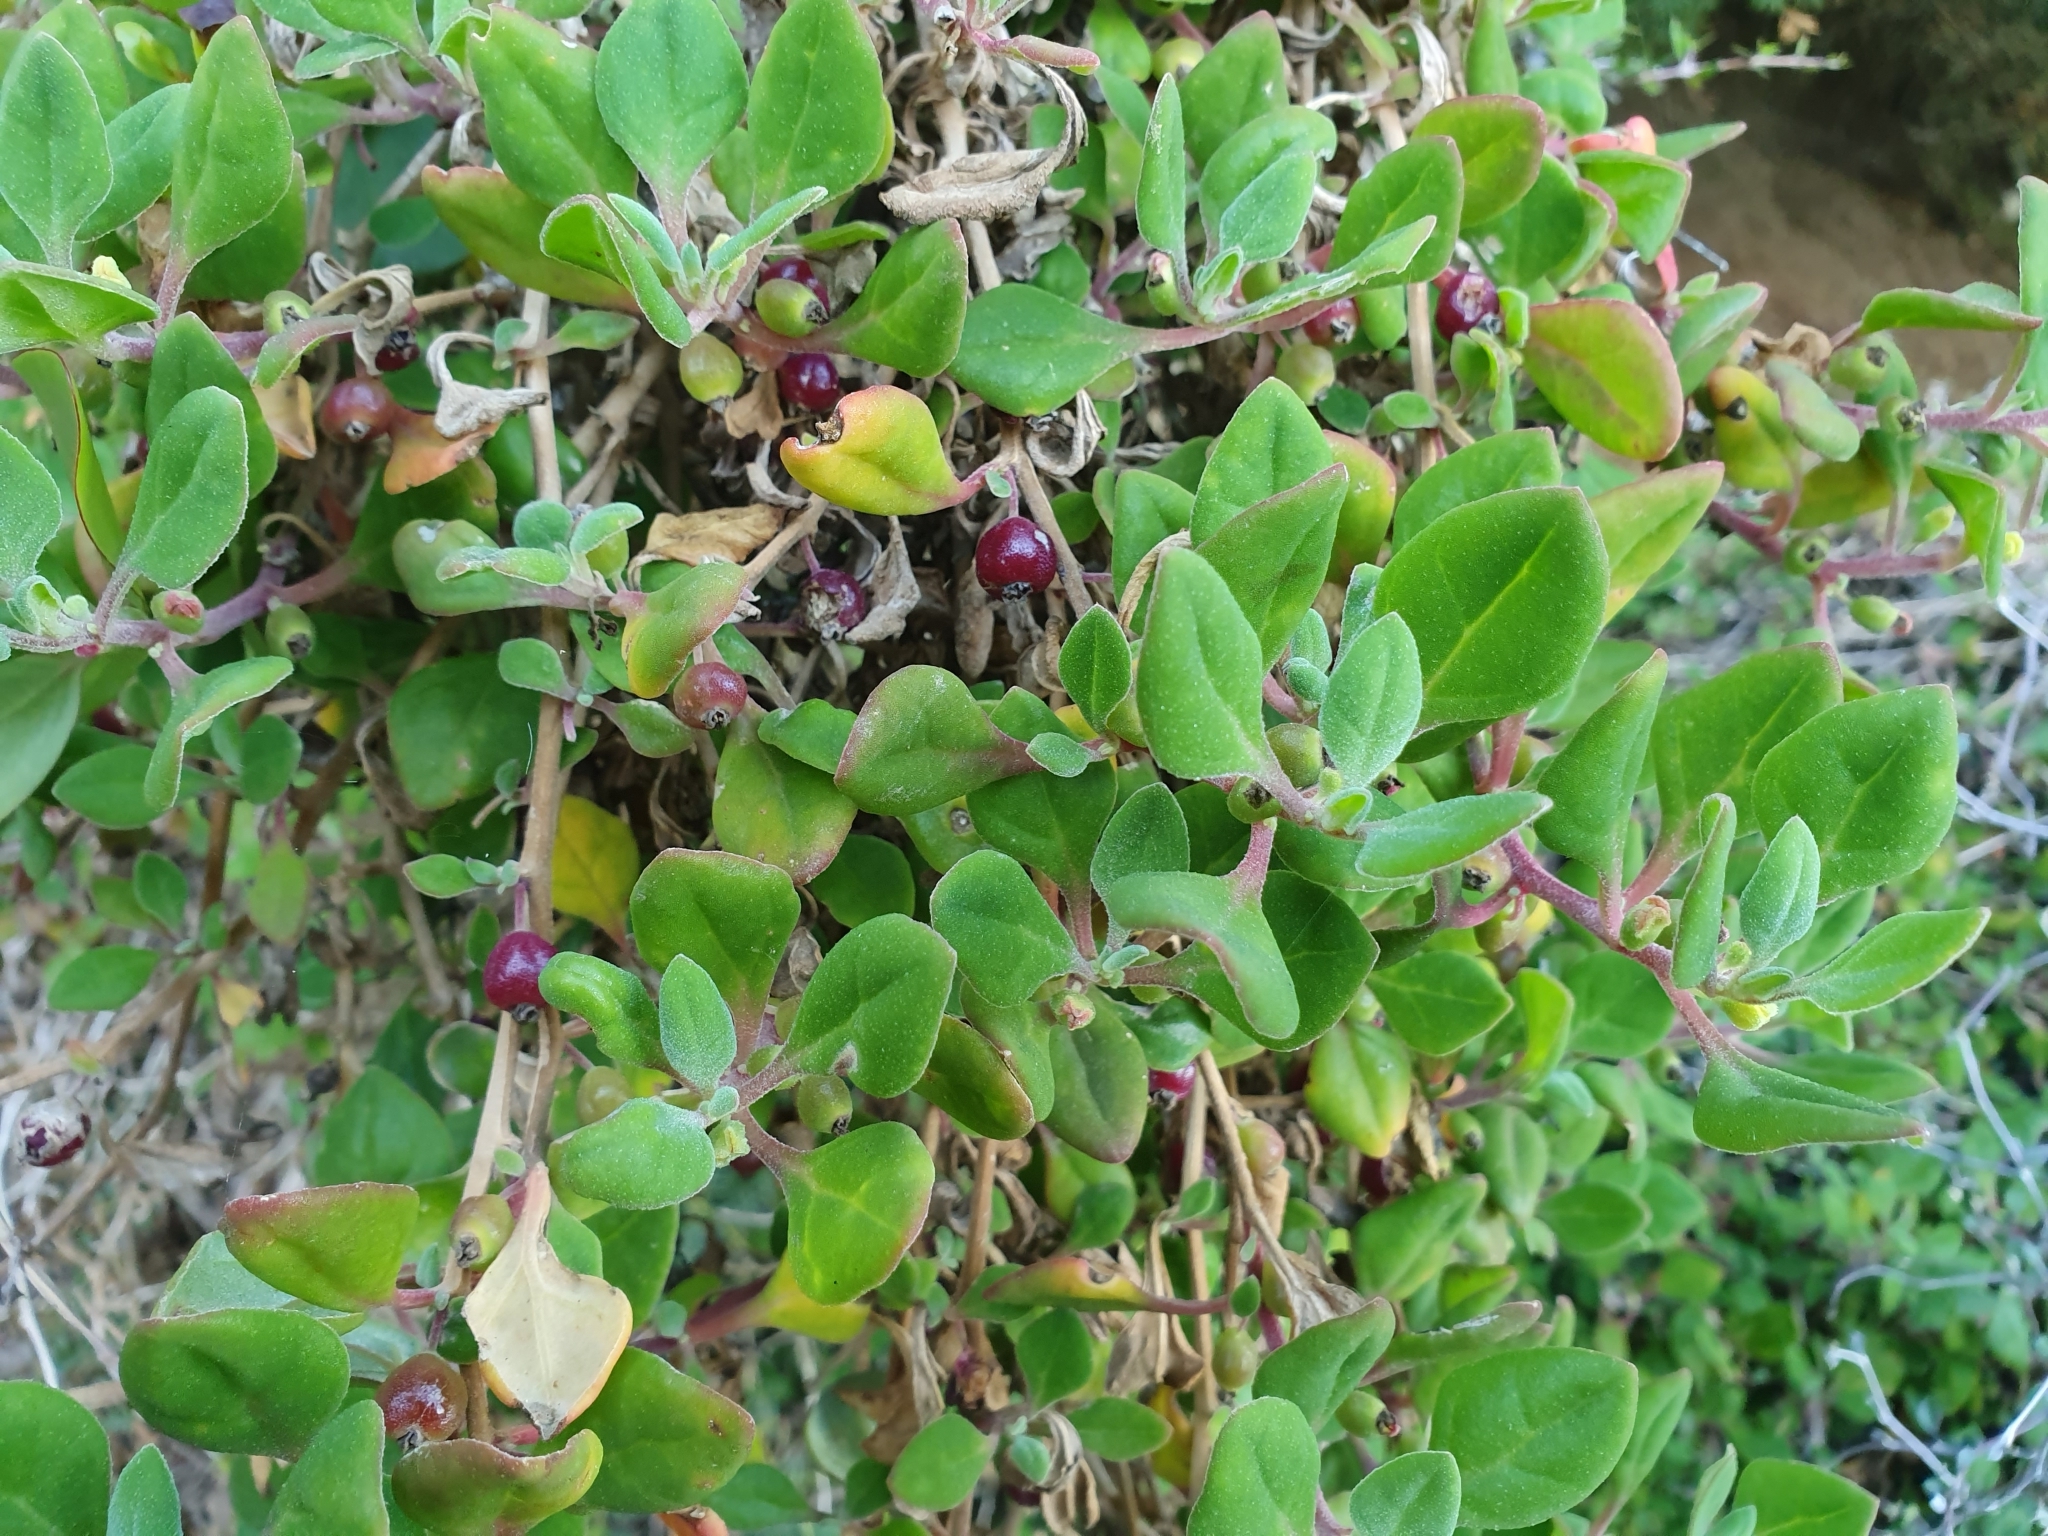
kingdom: Plantae
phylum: Tracheophyta
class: Magnoliopsida
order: Caryophyllales
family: Aizoaceae
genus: Tetragonia
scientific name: Tetragonia implexicoma
